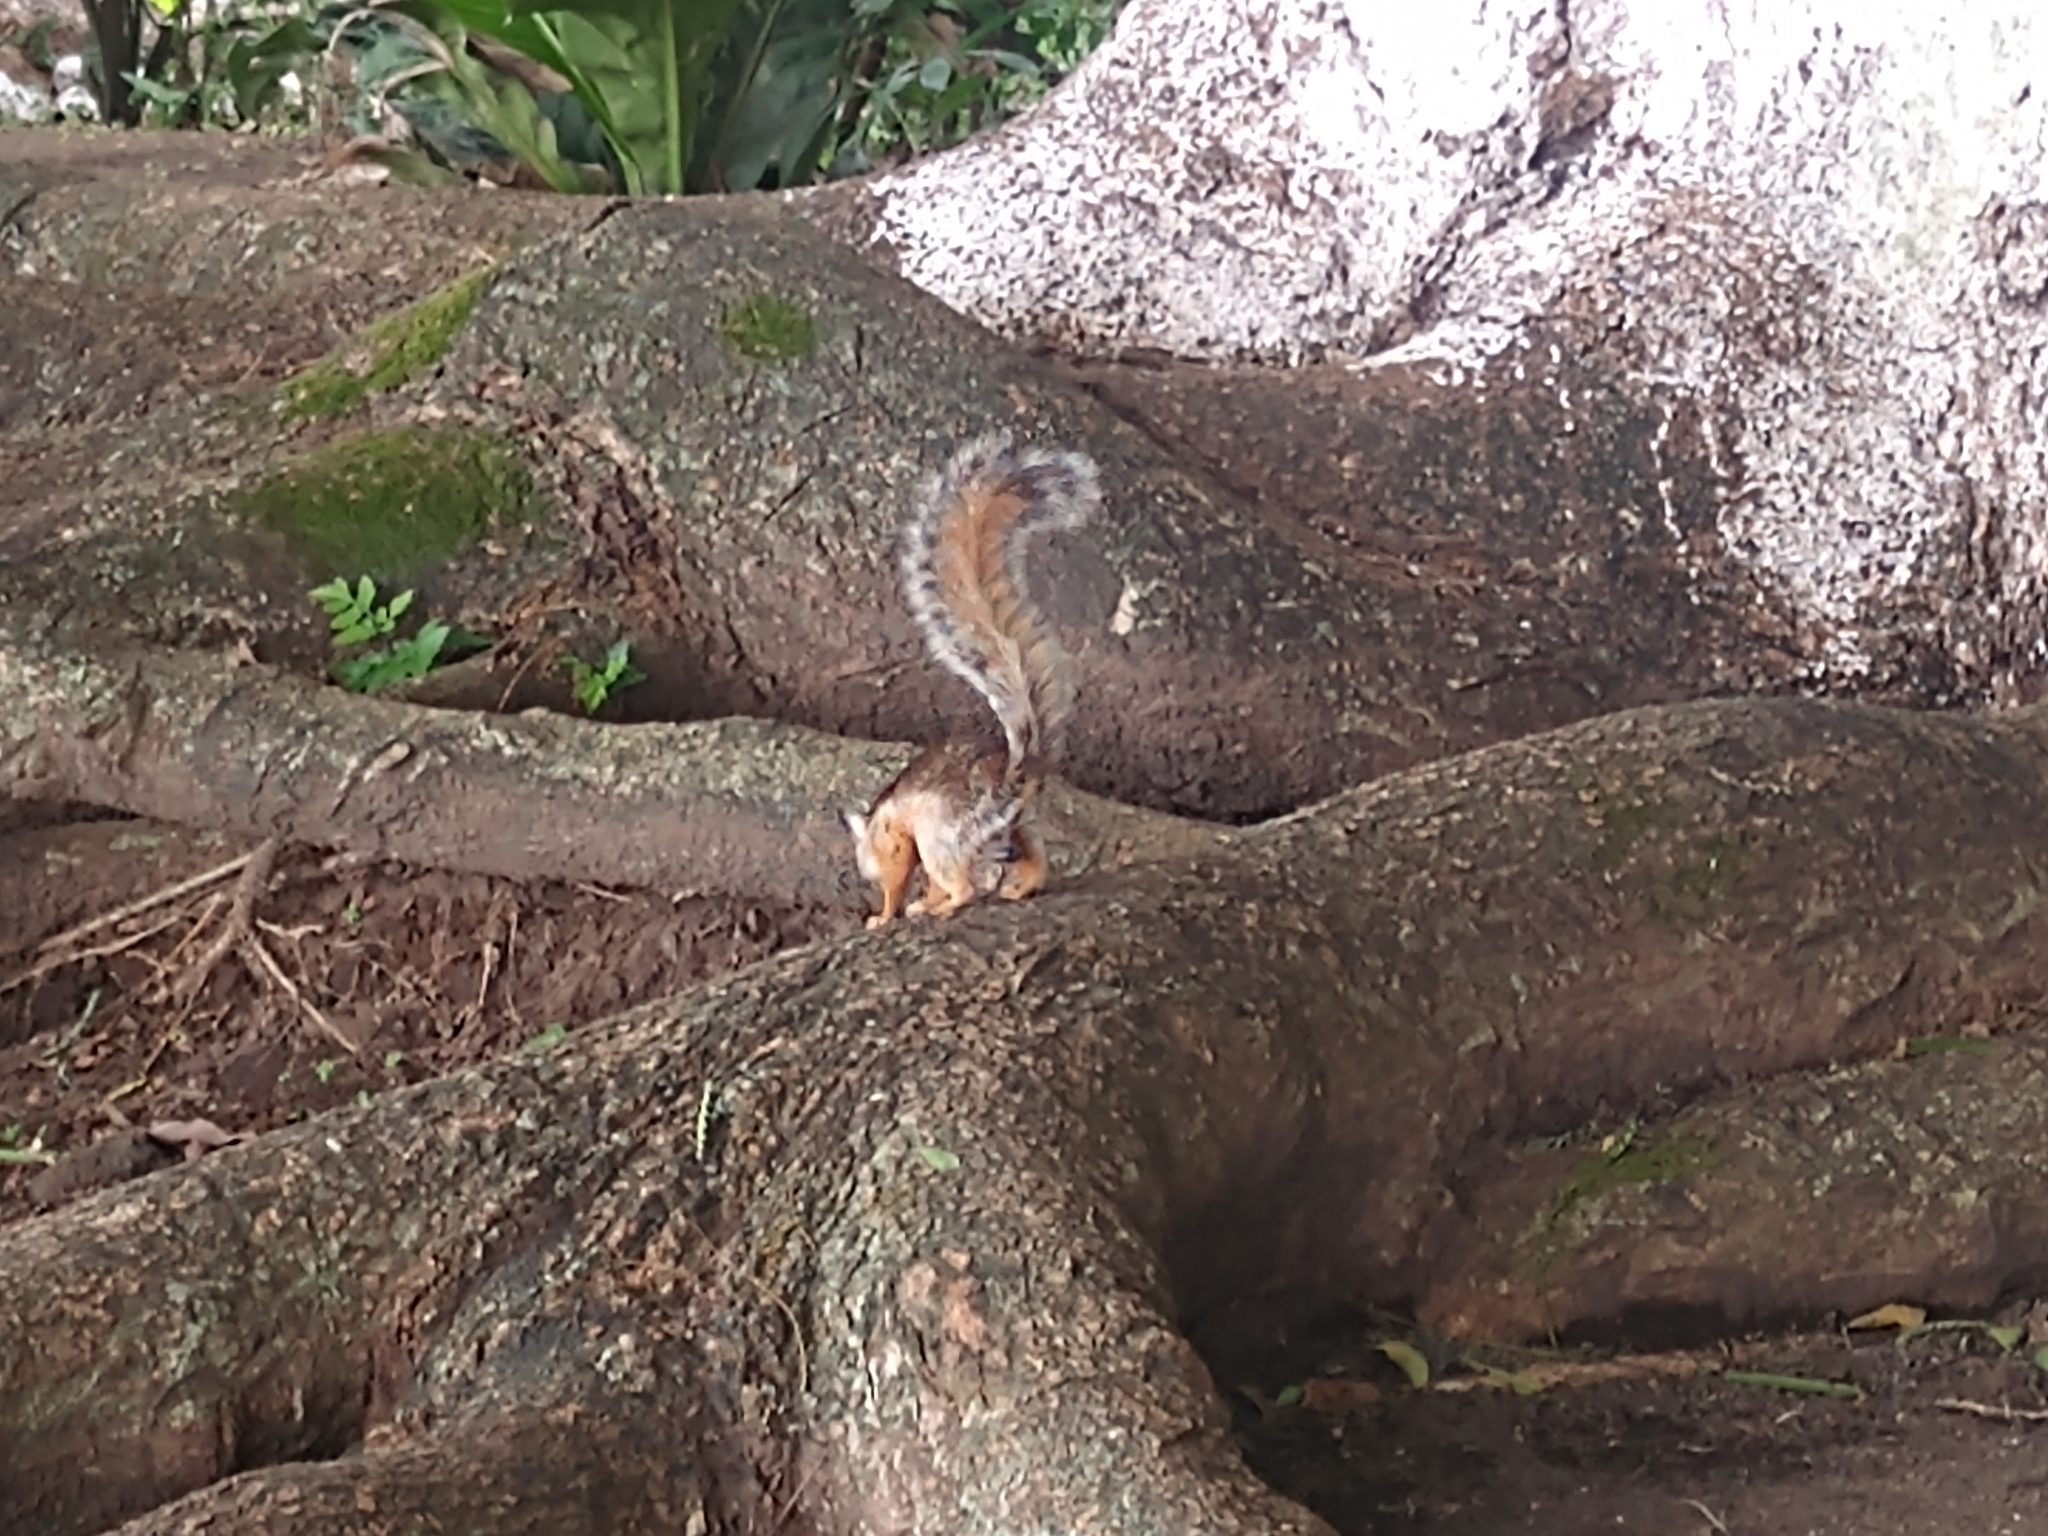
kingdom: Animalia
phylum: Chordata
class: Mammalia
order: Rodentia
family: Sciuridae
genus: Sciurus
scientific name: Sciurus variegatoides
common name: Variegated squirrel
